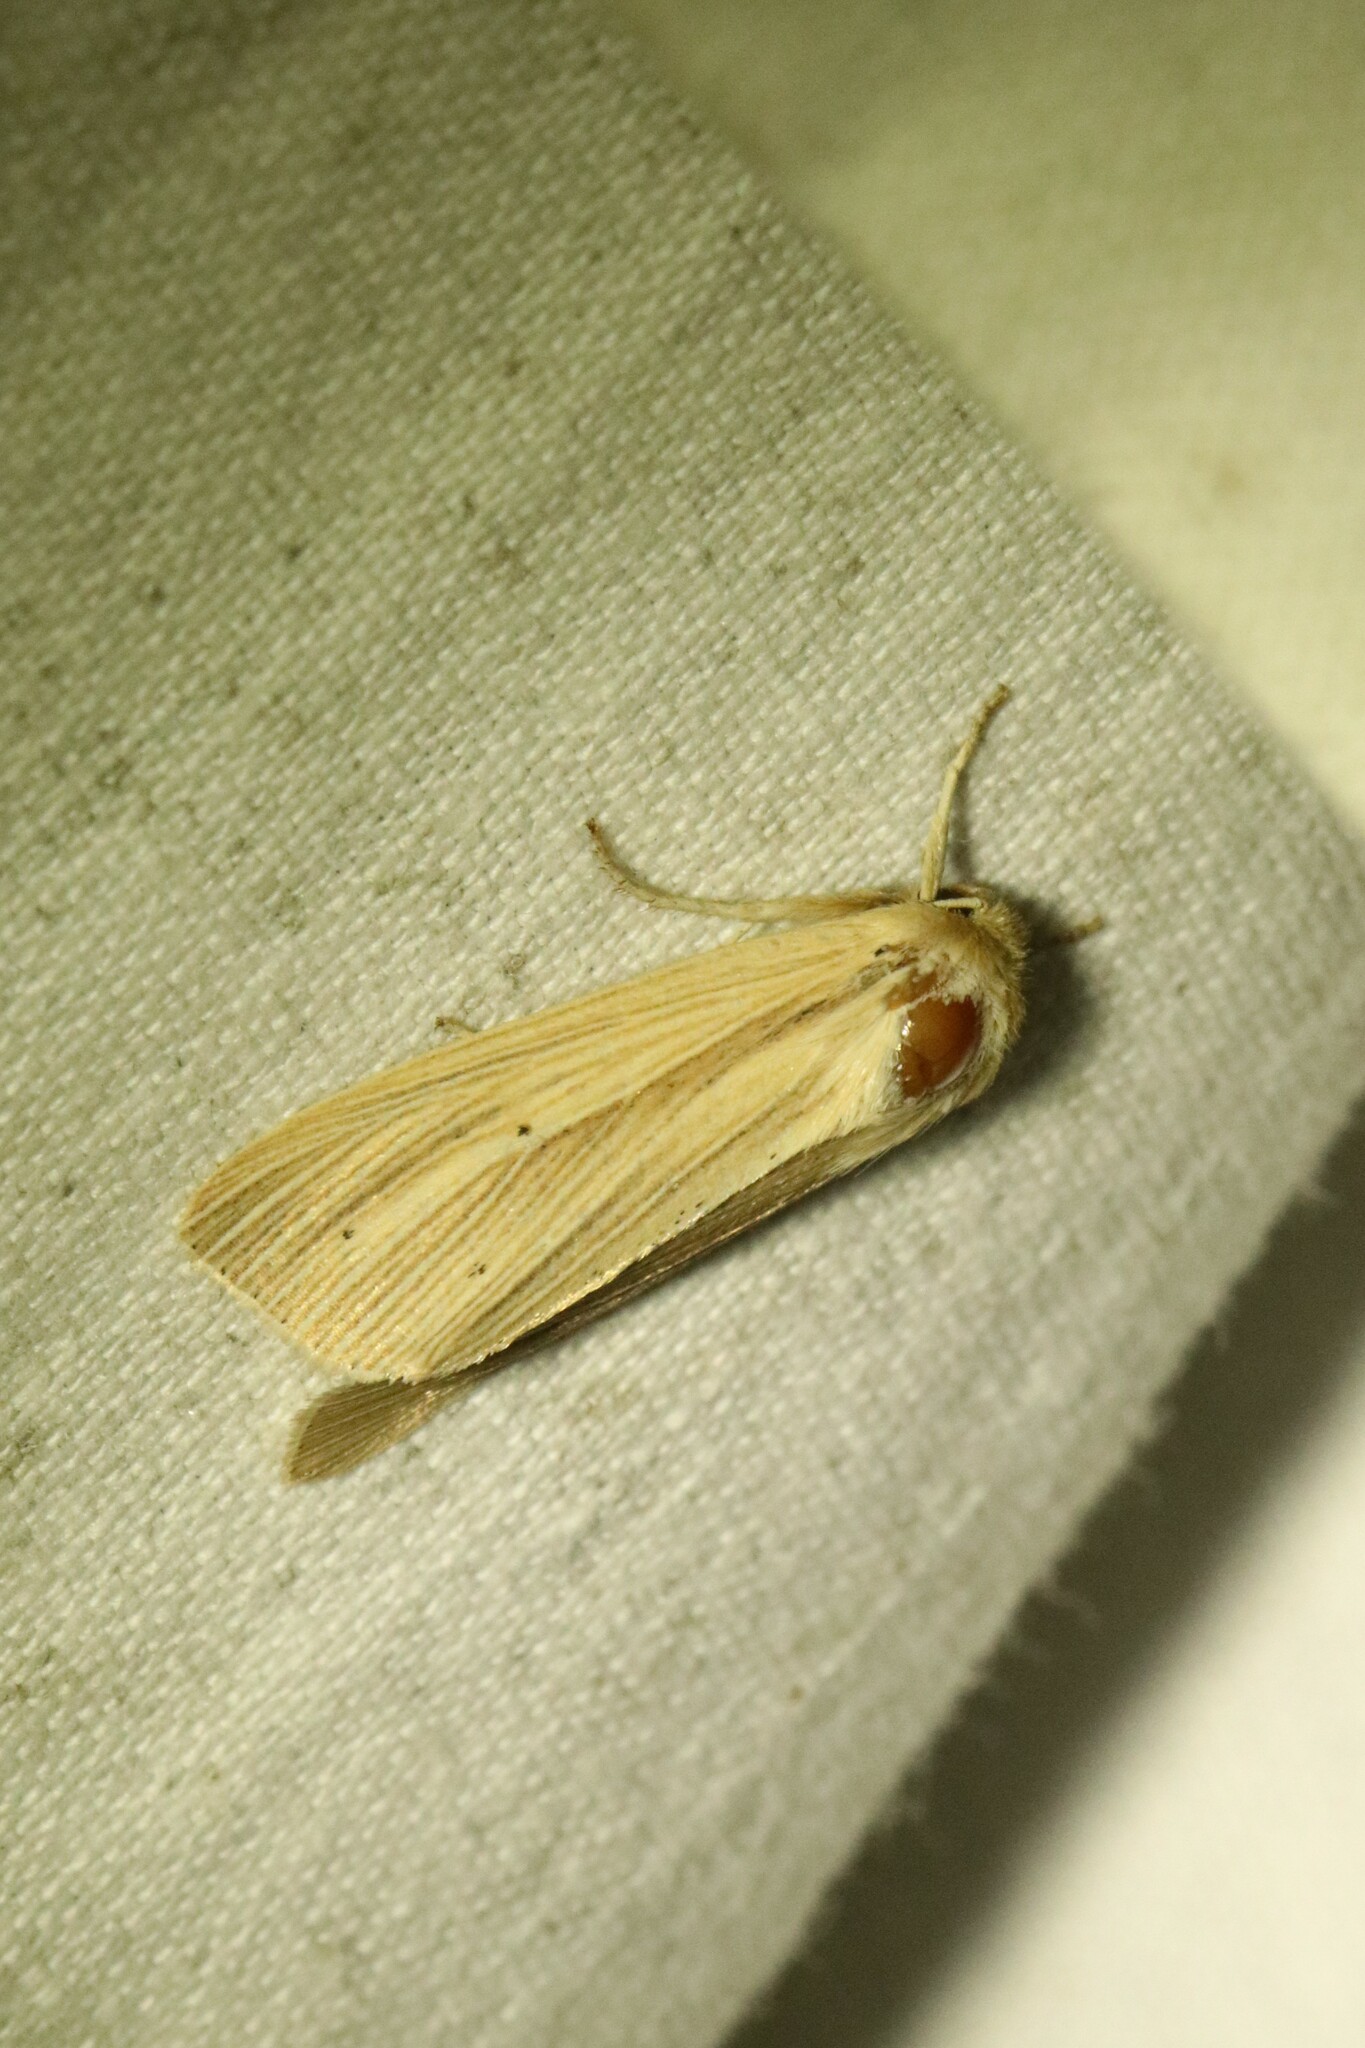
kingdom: Animalia
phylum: Arthropoda
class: Insecta
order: Lepidoptera
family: Noctuidae
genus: Mythimna
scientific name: Mythimna oxygala
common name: Lesser wainscot
